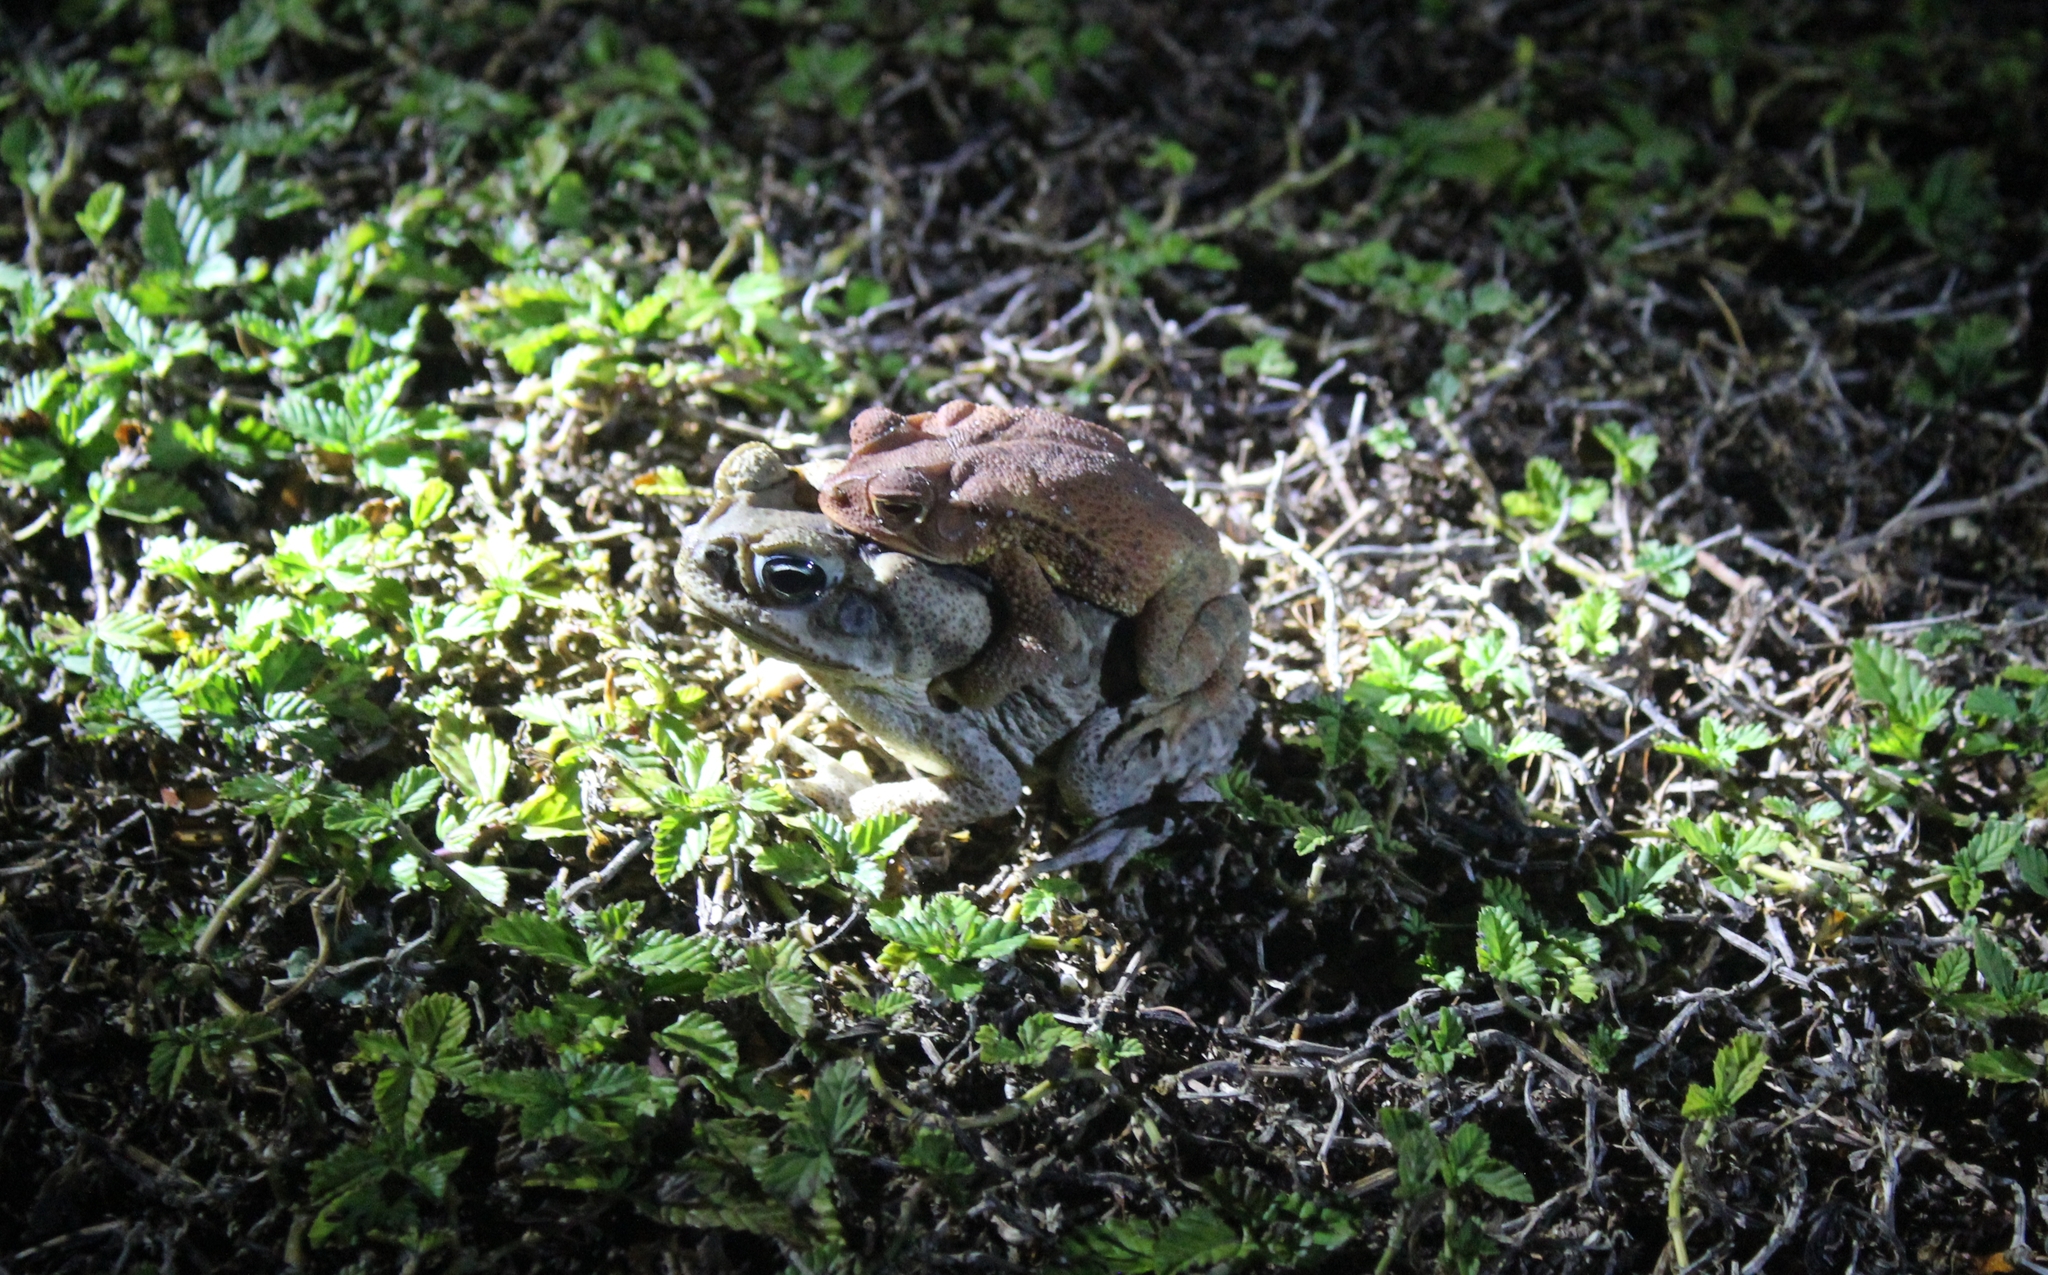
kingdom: Animalia
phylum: Chordata
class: Amphibia
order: Anura
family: Bufonidae
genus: Rhinella
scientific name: Rhinella horribilis
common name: Mesoamerican cane toad
